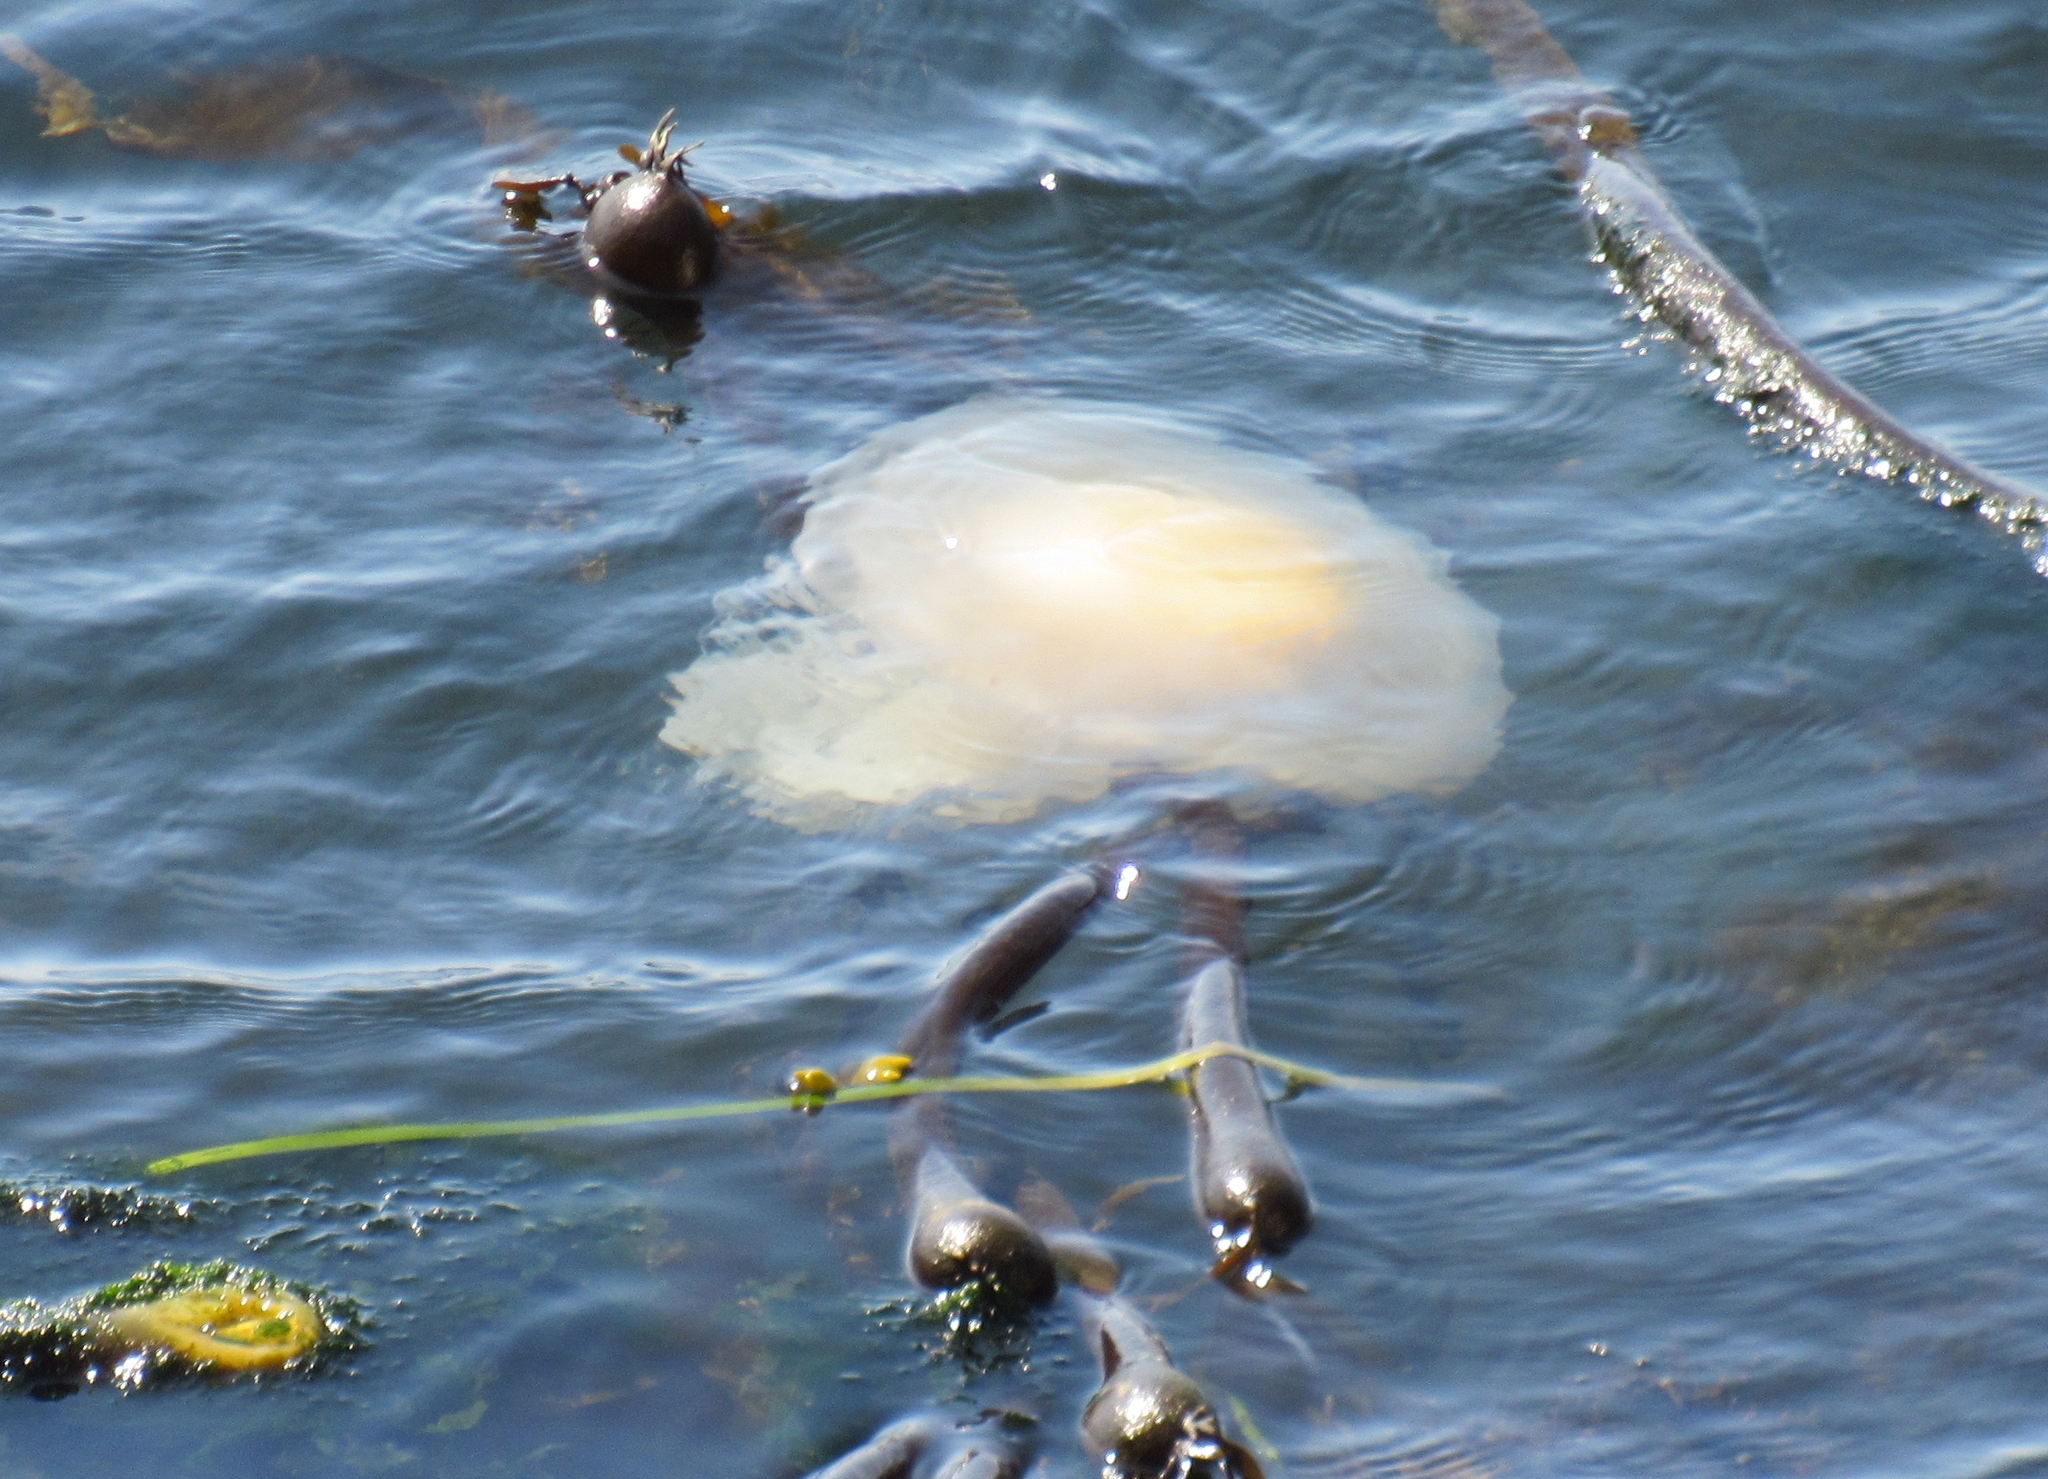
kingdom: Animalia
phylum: Cnidaria
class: Scyphozoa
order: Semaeostomeae
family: Phacellophoridae
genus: Phacellophora
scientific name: Phacellophora camtschatica
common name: Fried-egg jellyfish
